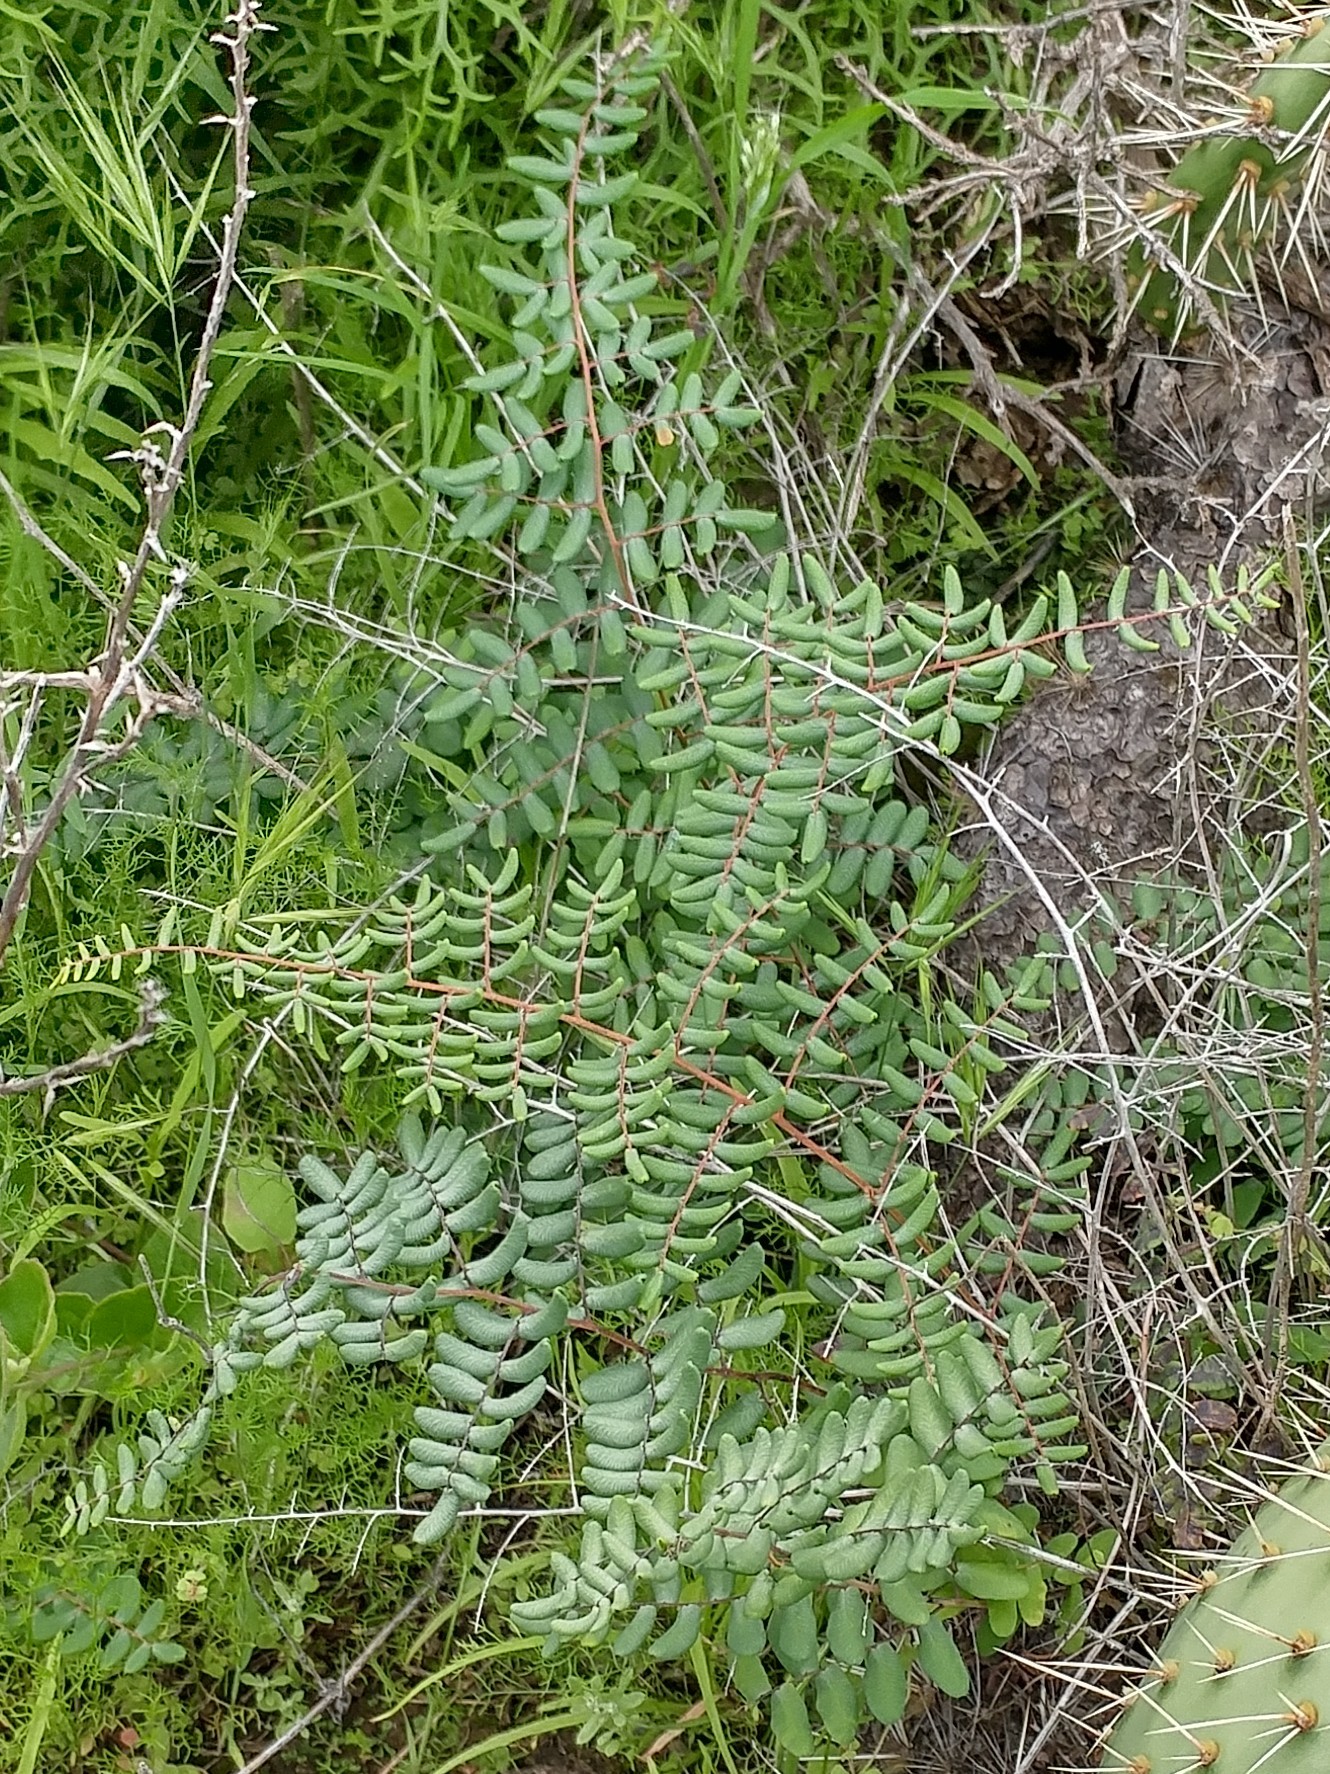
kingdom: Plantae
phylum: Tracheophyta
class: Polypodiopsida
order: Polypodiales
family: Pteridaceae
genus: Pellaea
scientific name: Pellaea andromedifolia
